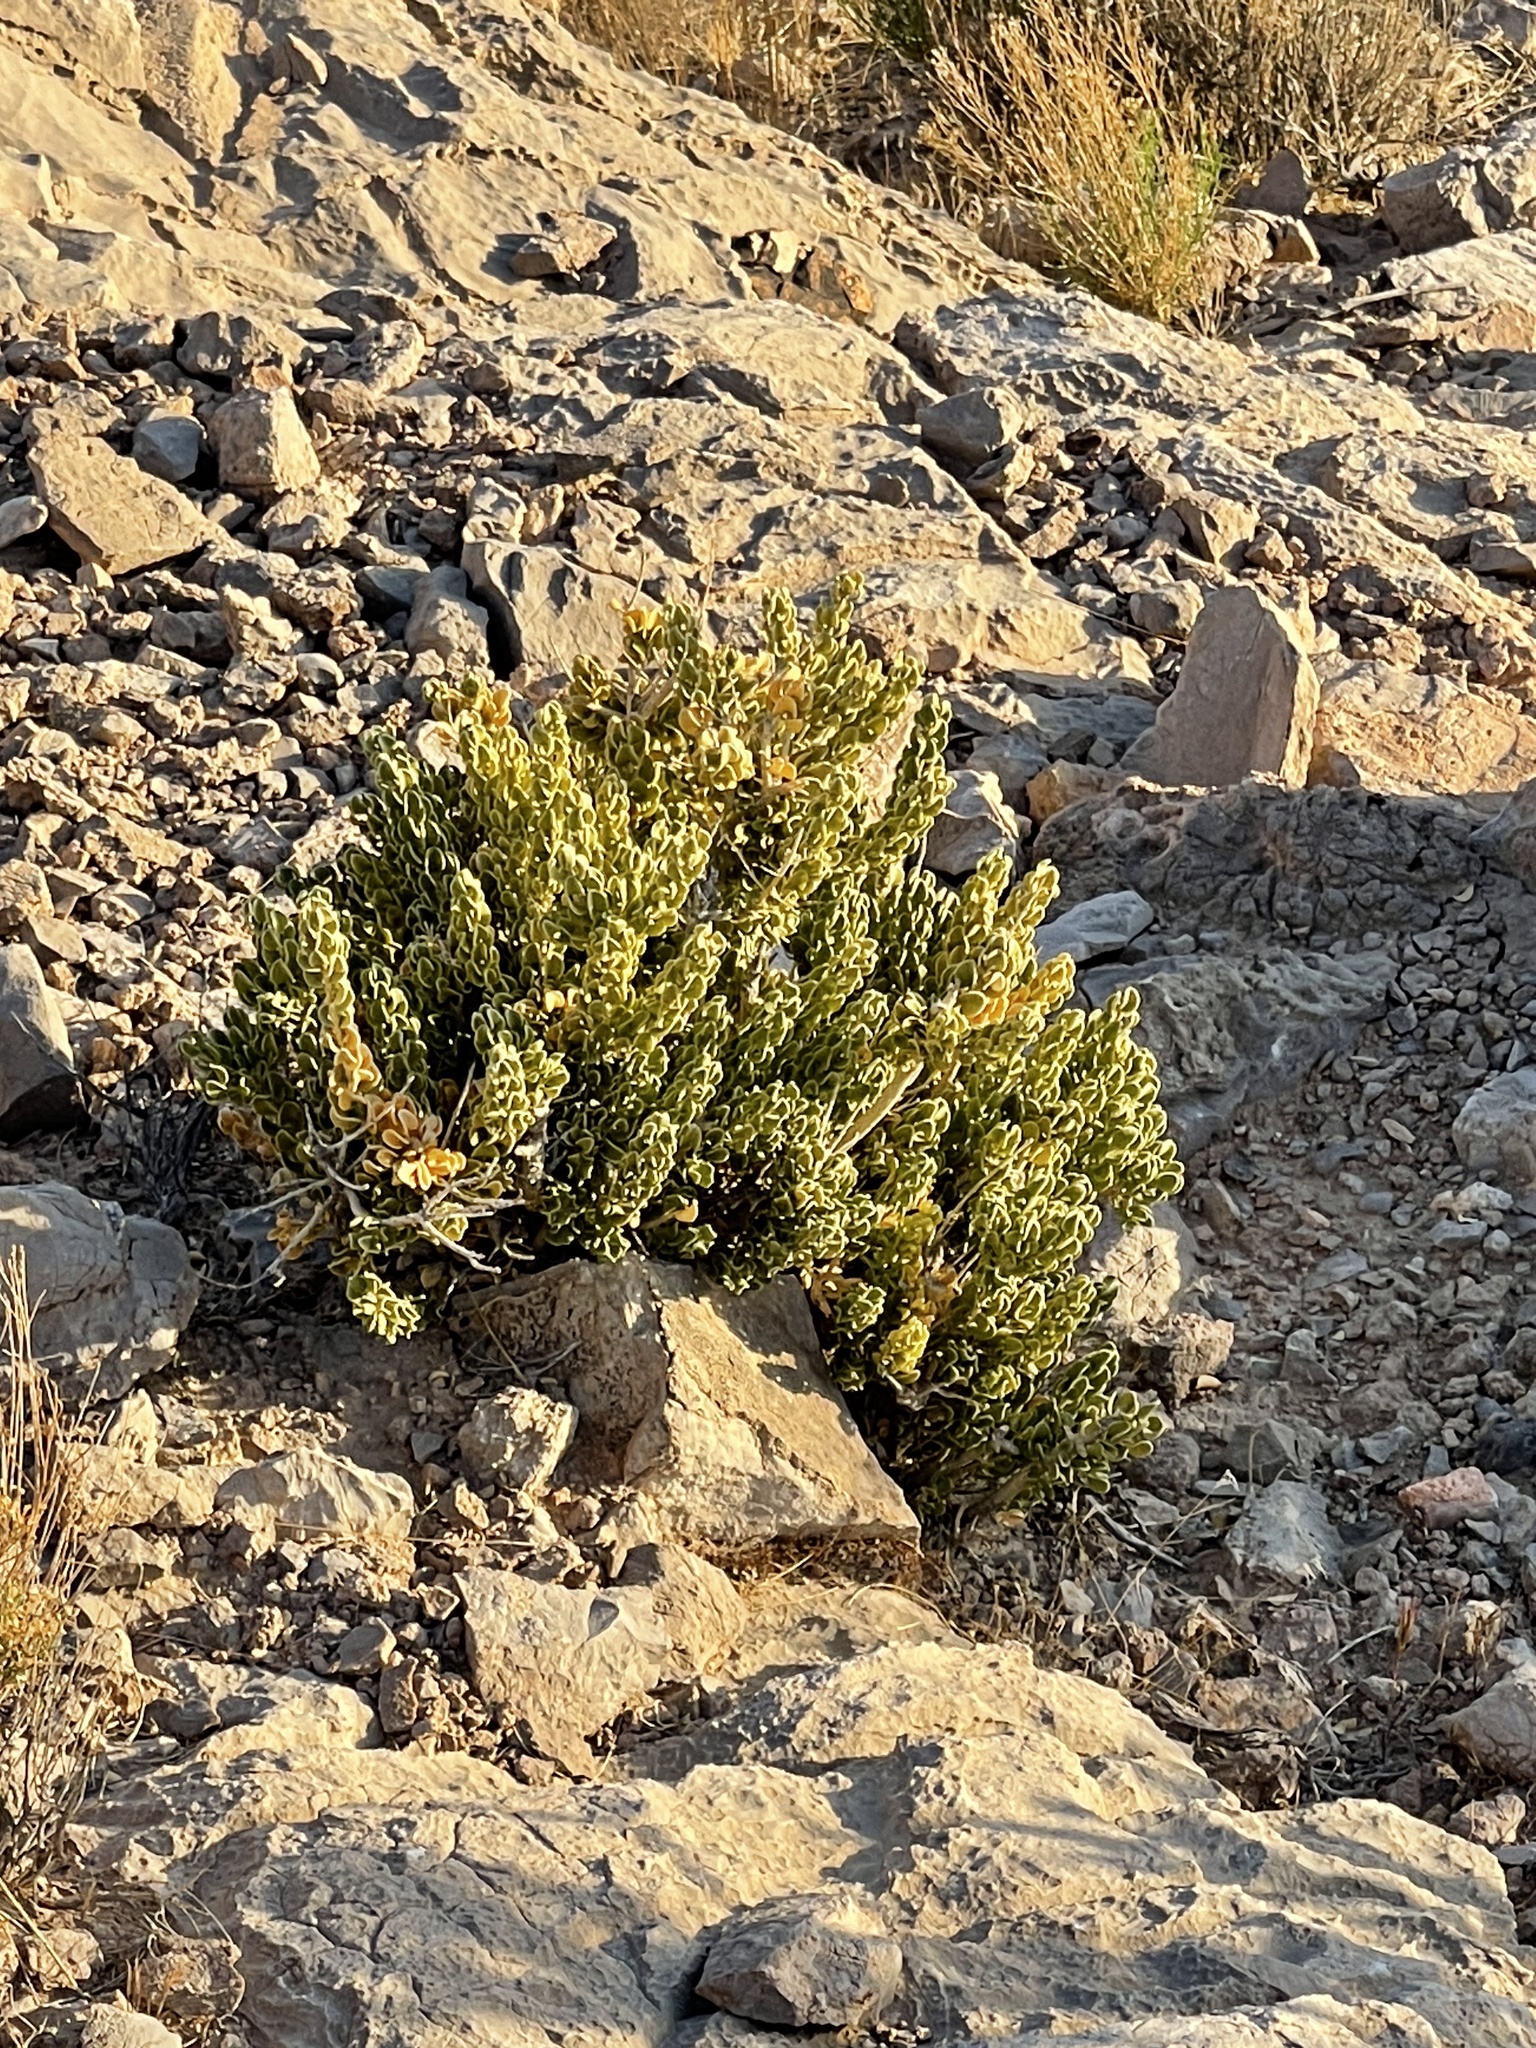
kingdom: Plantae
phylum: Tracheophyta
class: Magnoliopsida
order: Celastrales
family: Celastraceae
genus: Mortonia
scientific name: Mortonia utahensis
